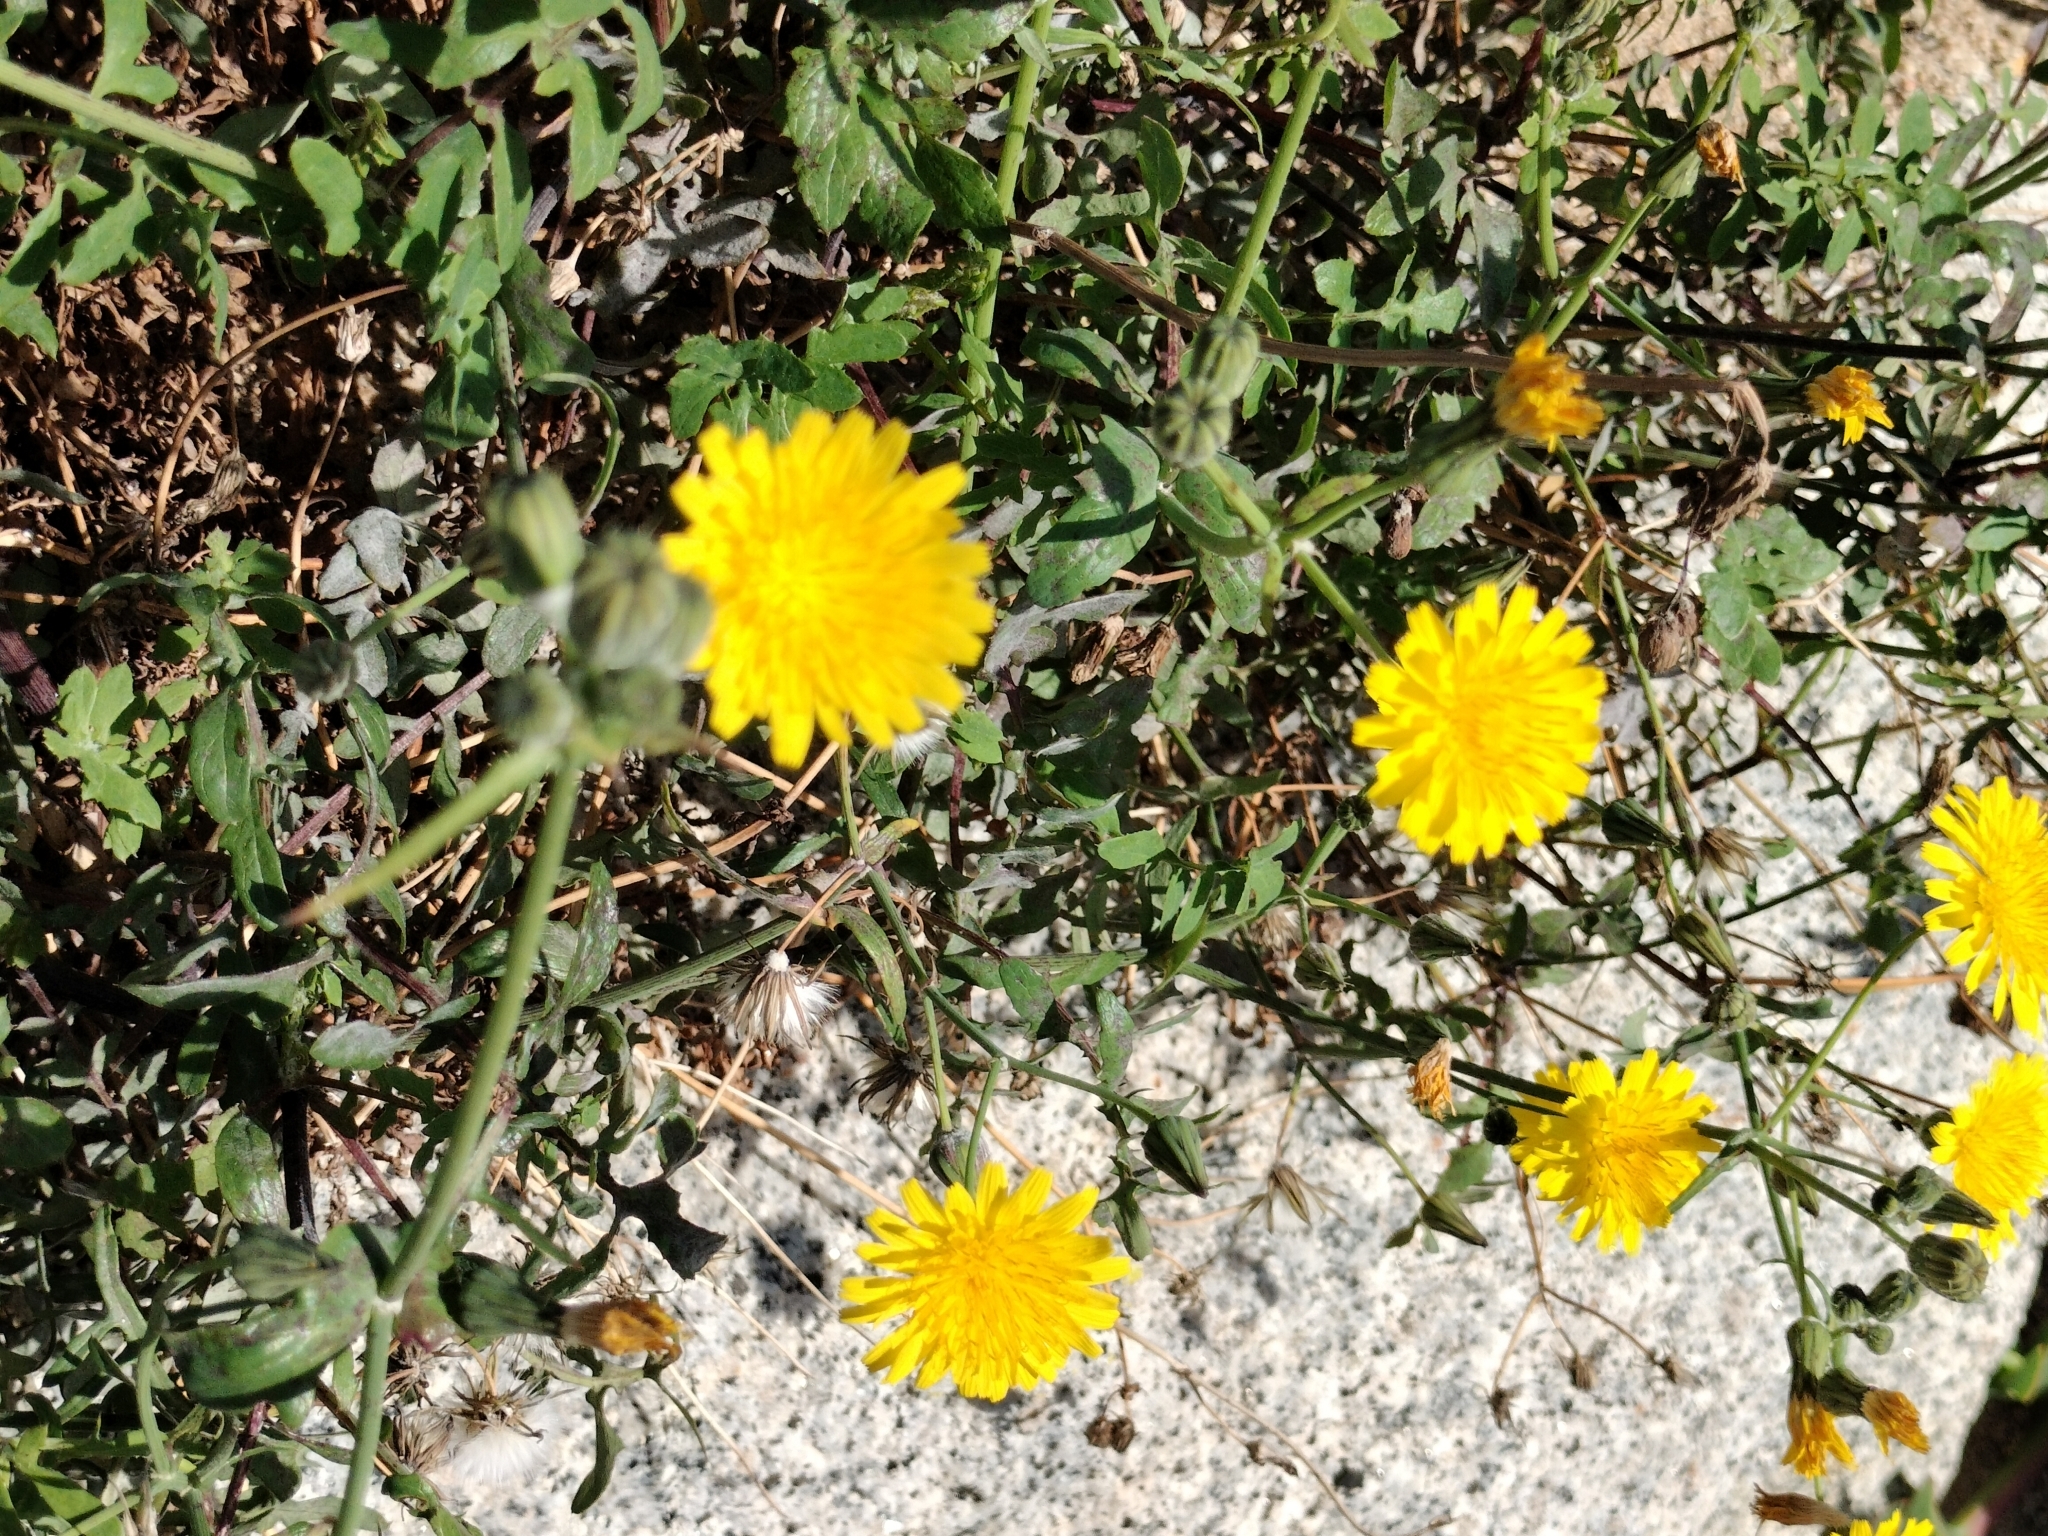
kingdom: Plantae
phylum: Tracheophyta
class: Magnoliopsida
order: Asterales
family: Asteraceae
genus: Sonchus
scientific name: Sonchus tenerrimus
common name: Clammy sowthistle
